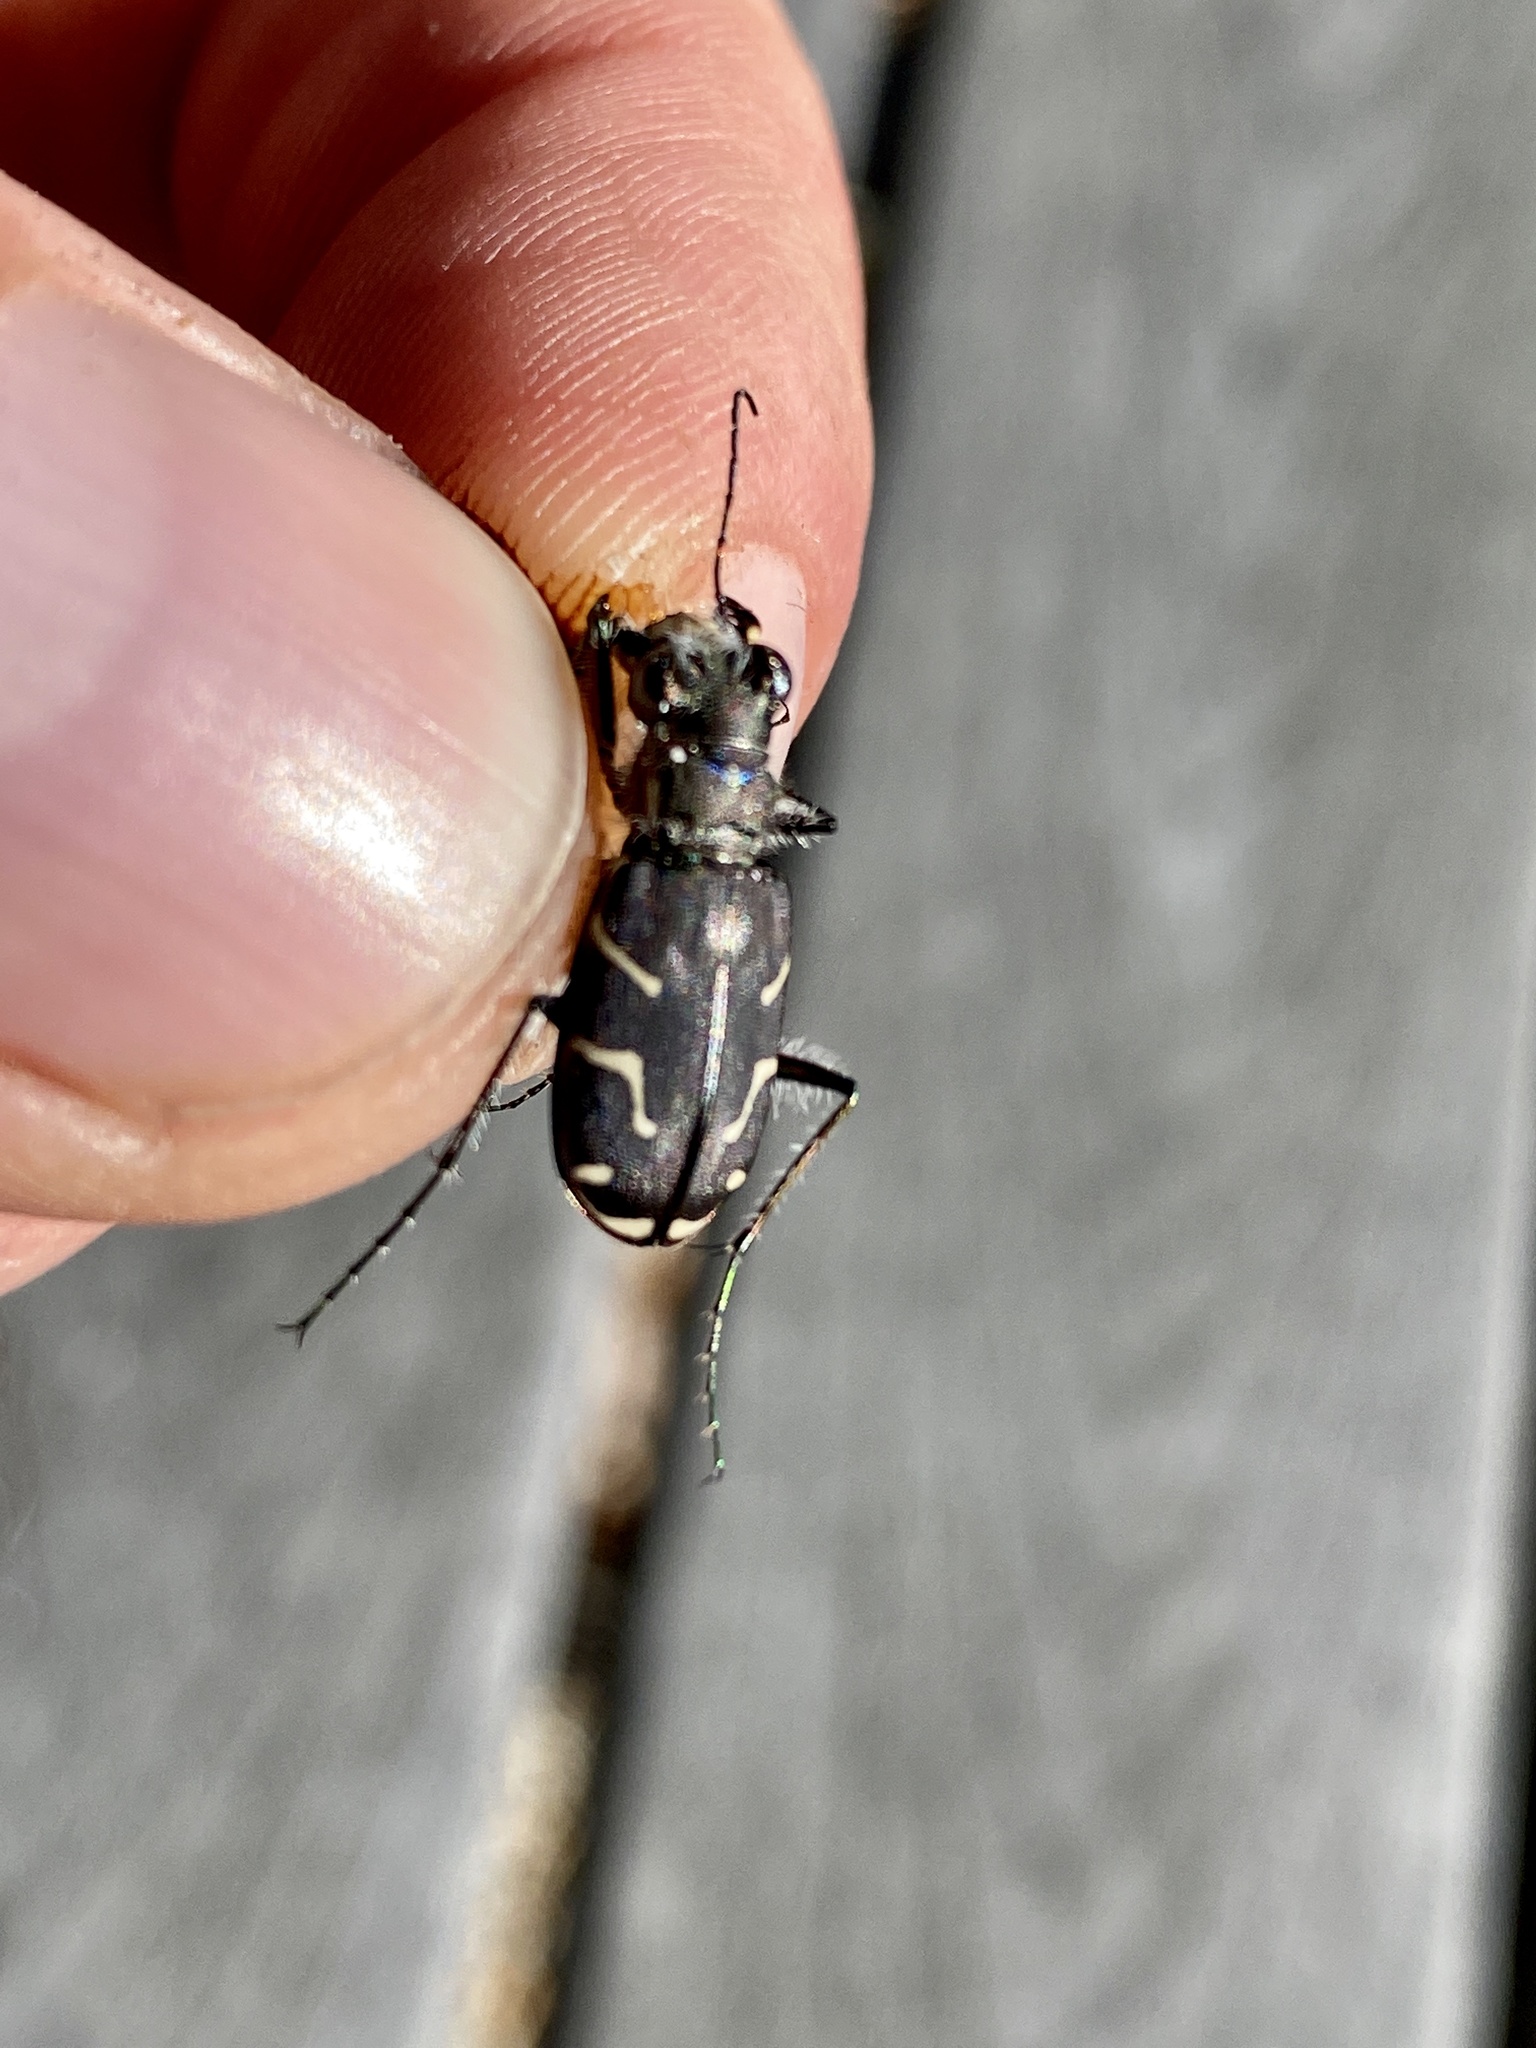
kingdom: Animalia
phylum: Arthropoda
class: Insecta
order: Coleoptera
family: Carabidae
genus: Cicindela
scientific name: Cicindela tranquebarica
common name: Oblique-lined tiger beetle
